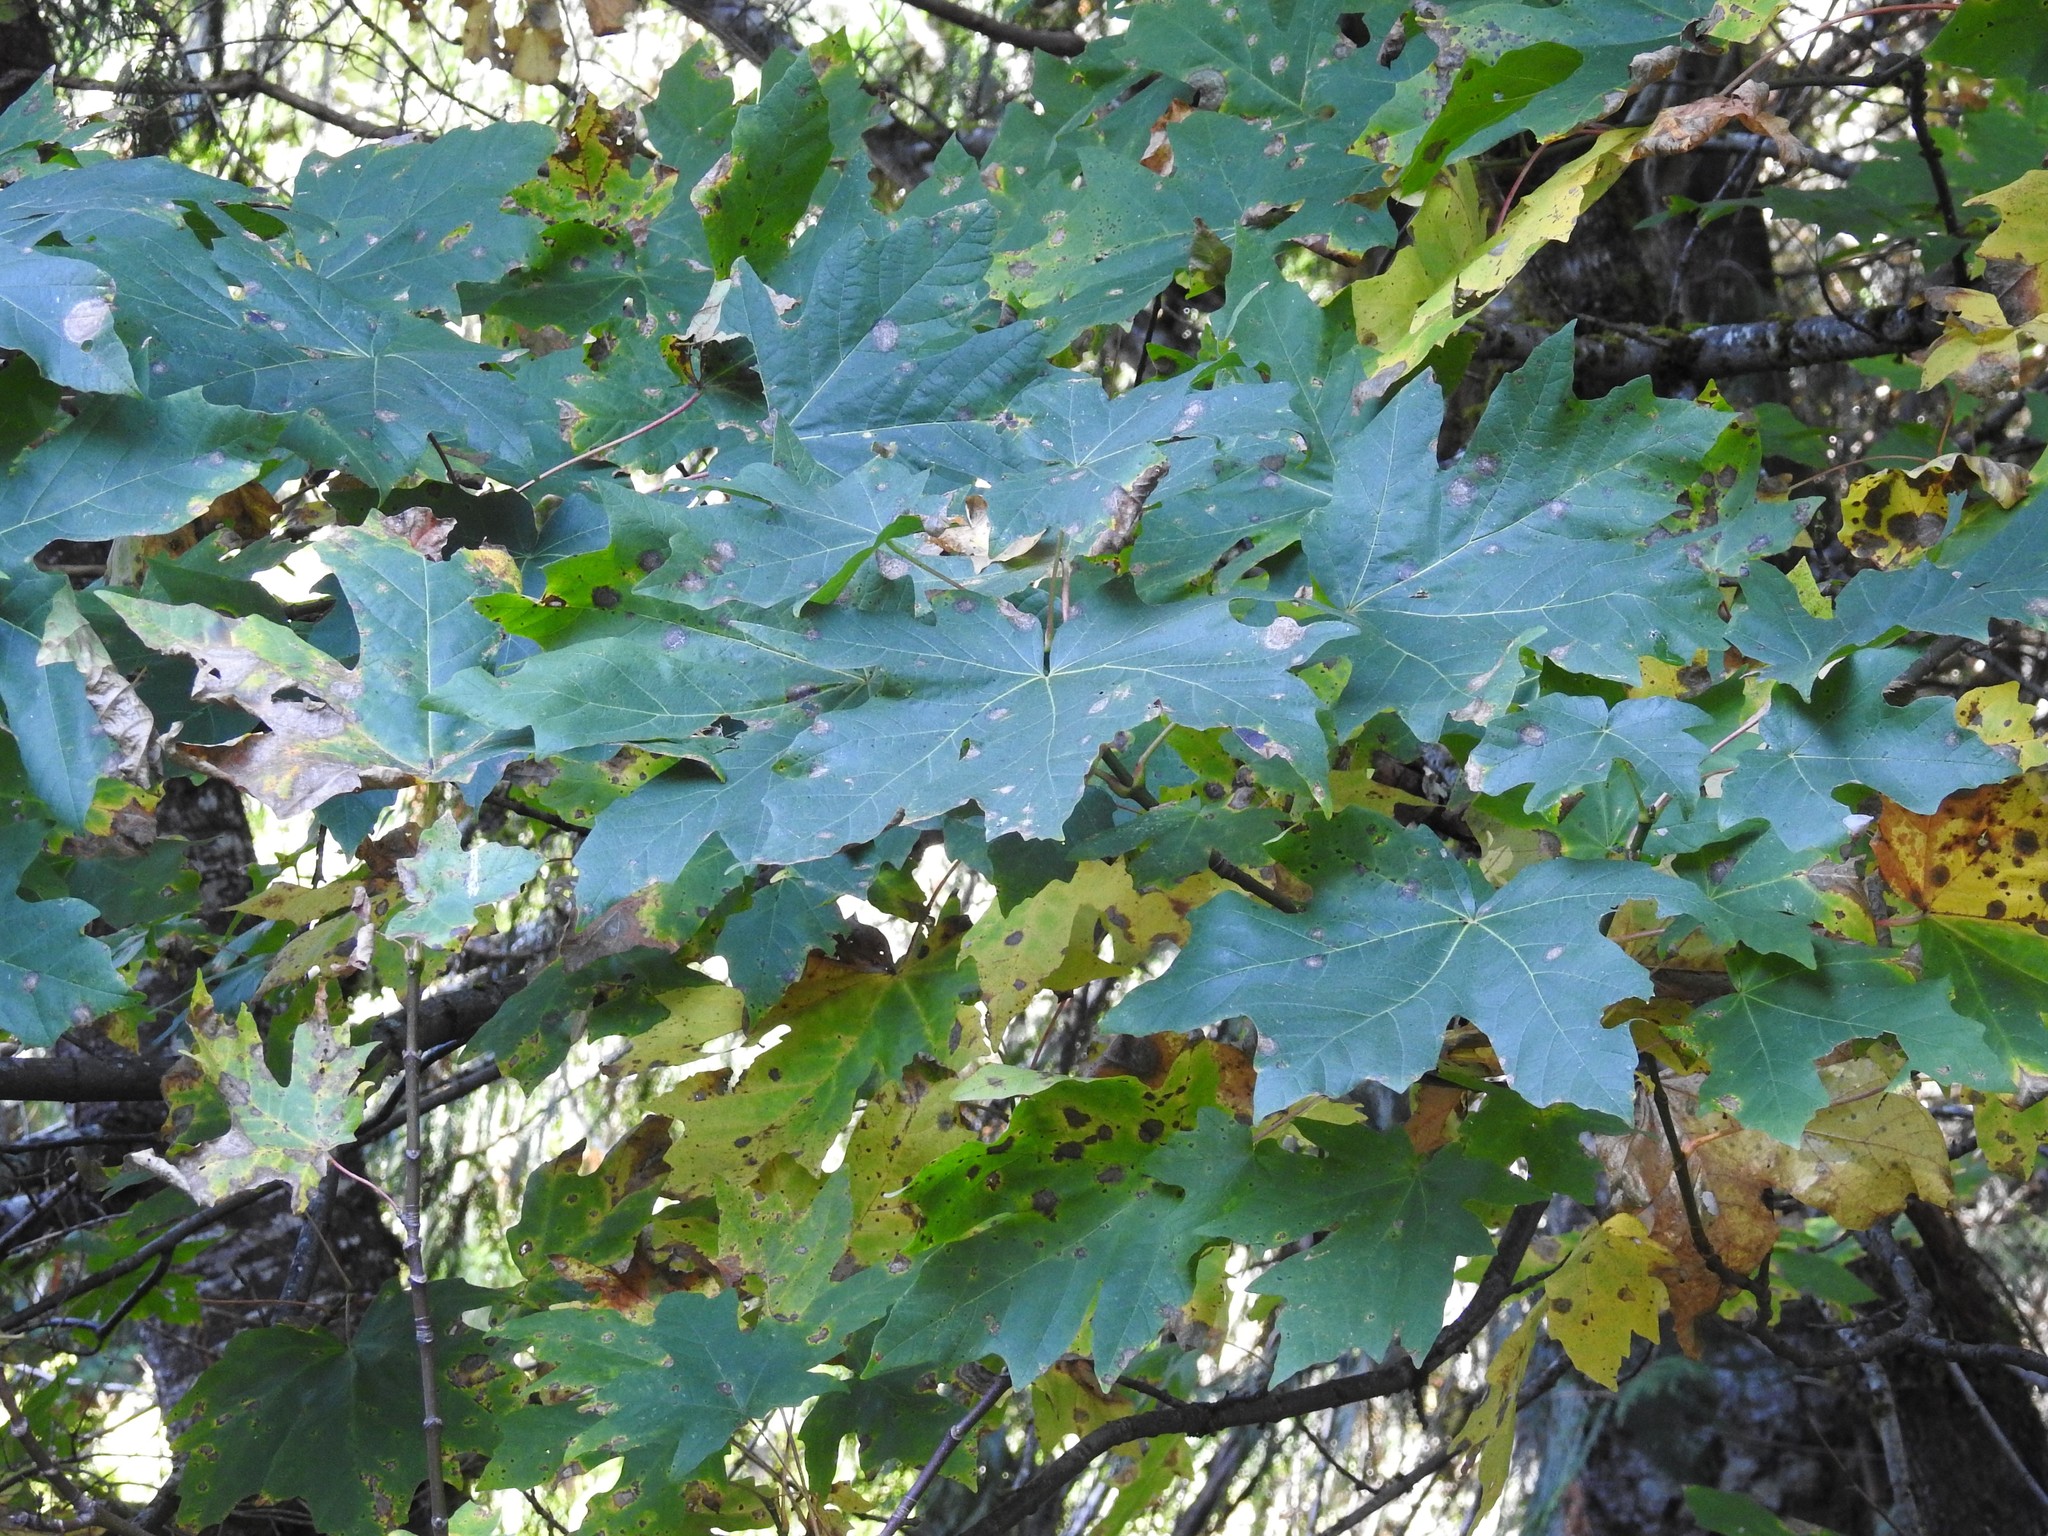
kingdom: Plantae
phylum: Tracheophyta
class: Magnoliopsida
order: Sapindales
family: Sapindaceae
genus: Acer
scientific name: Acer macrophyllum
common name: Oregon maple
